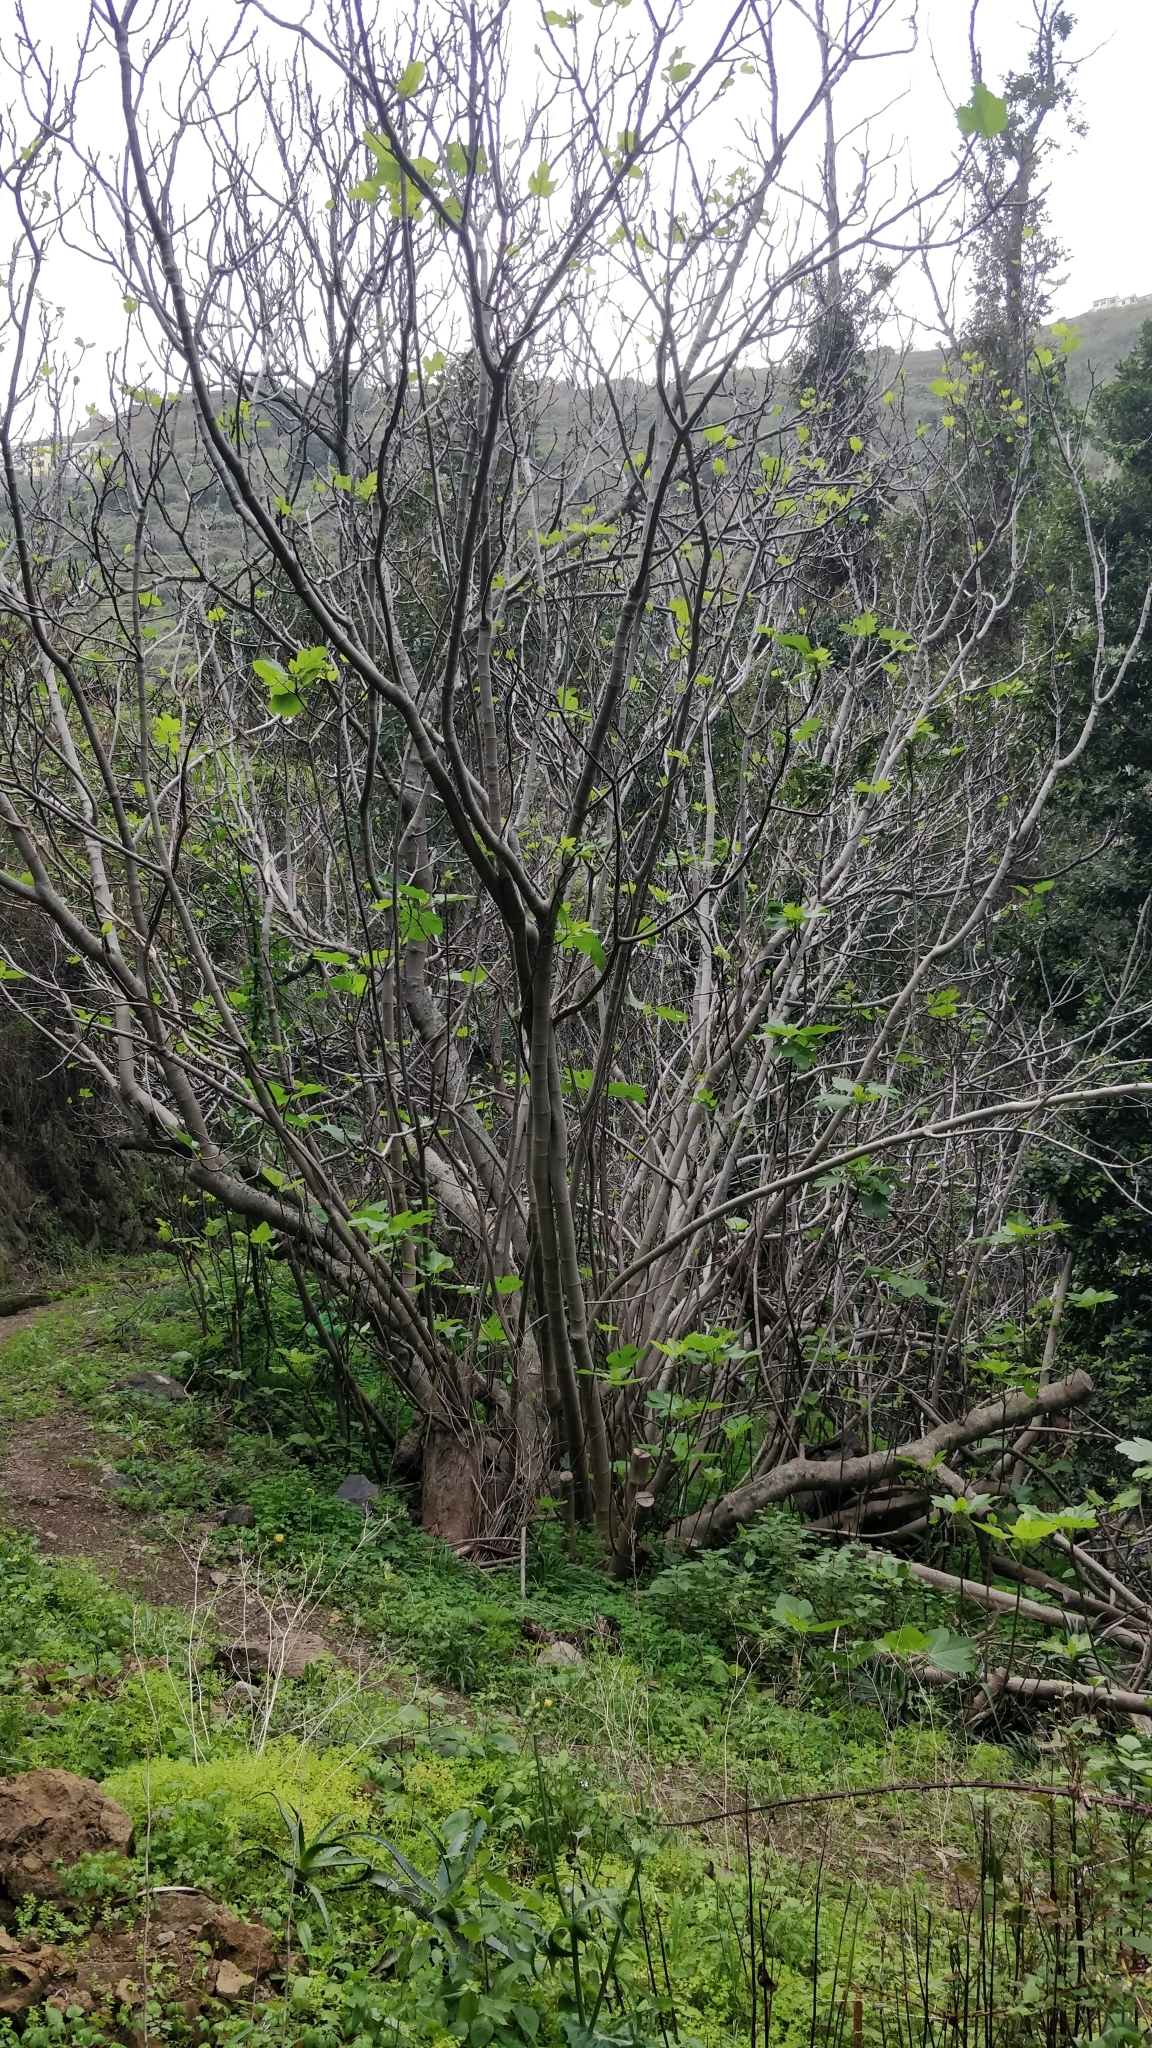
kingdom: Plantae
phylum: Tracheophyta
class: Magnoliopsida
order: Rosales
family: Moraceae
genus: Ficus
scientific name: Ficus carica
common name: Fig
